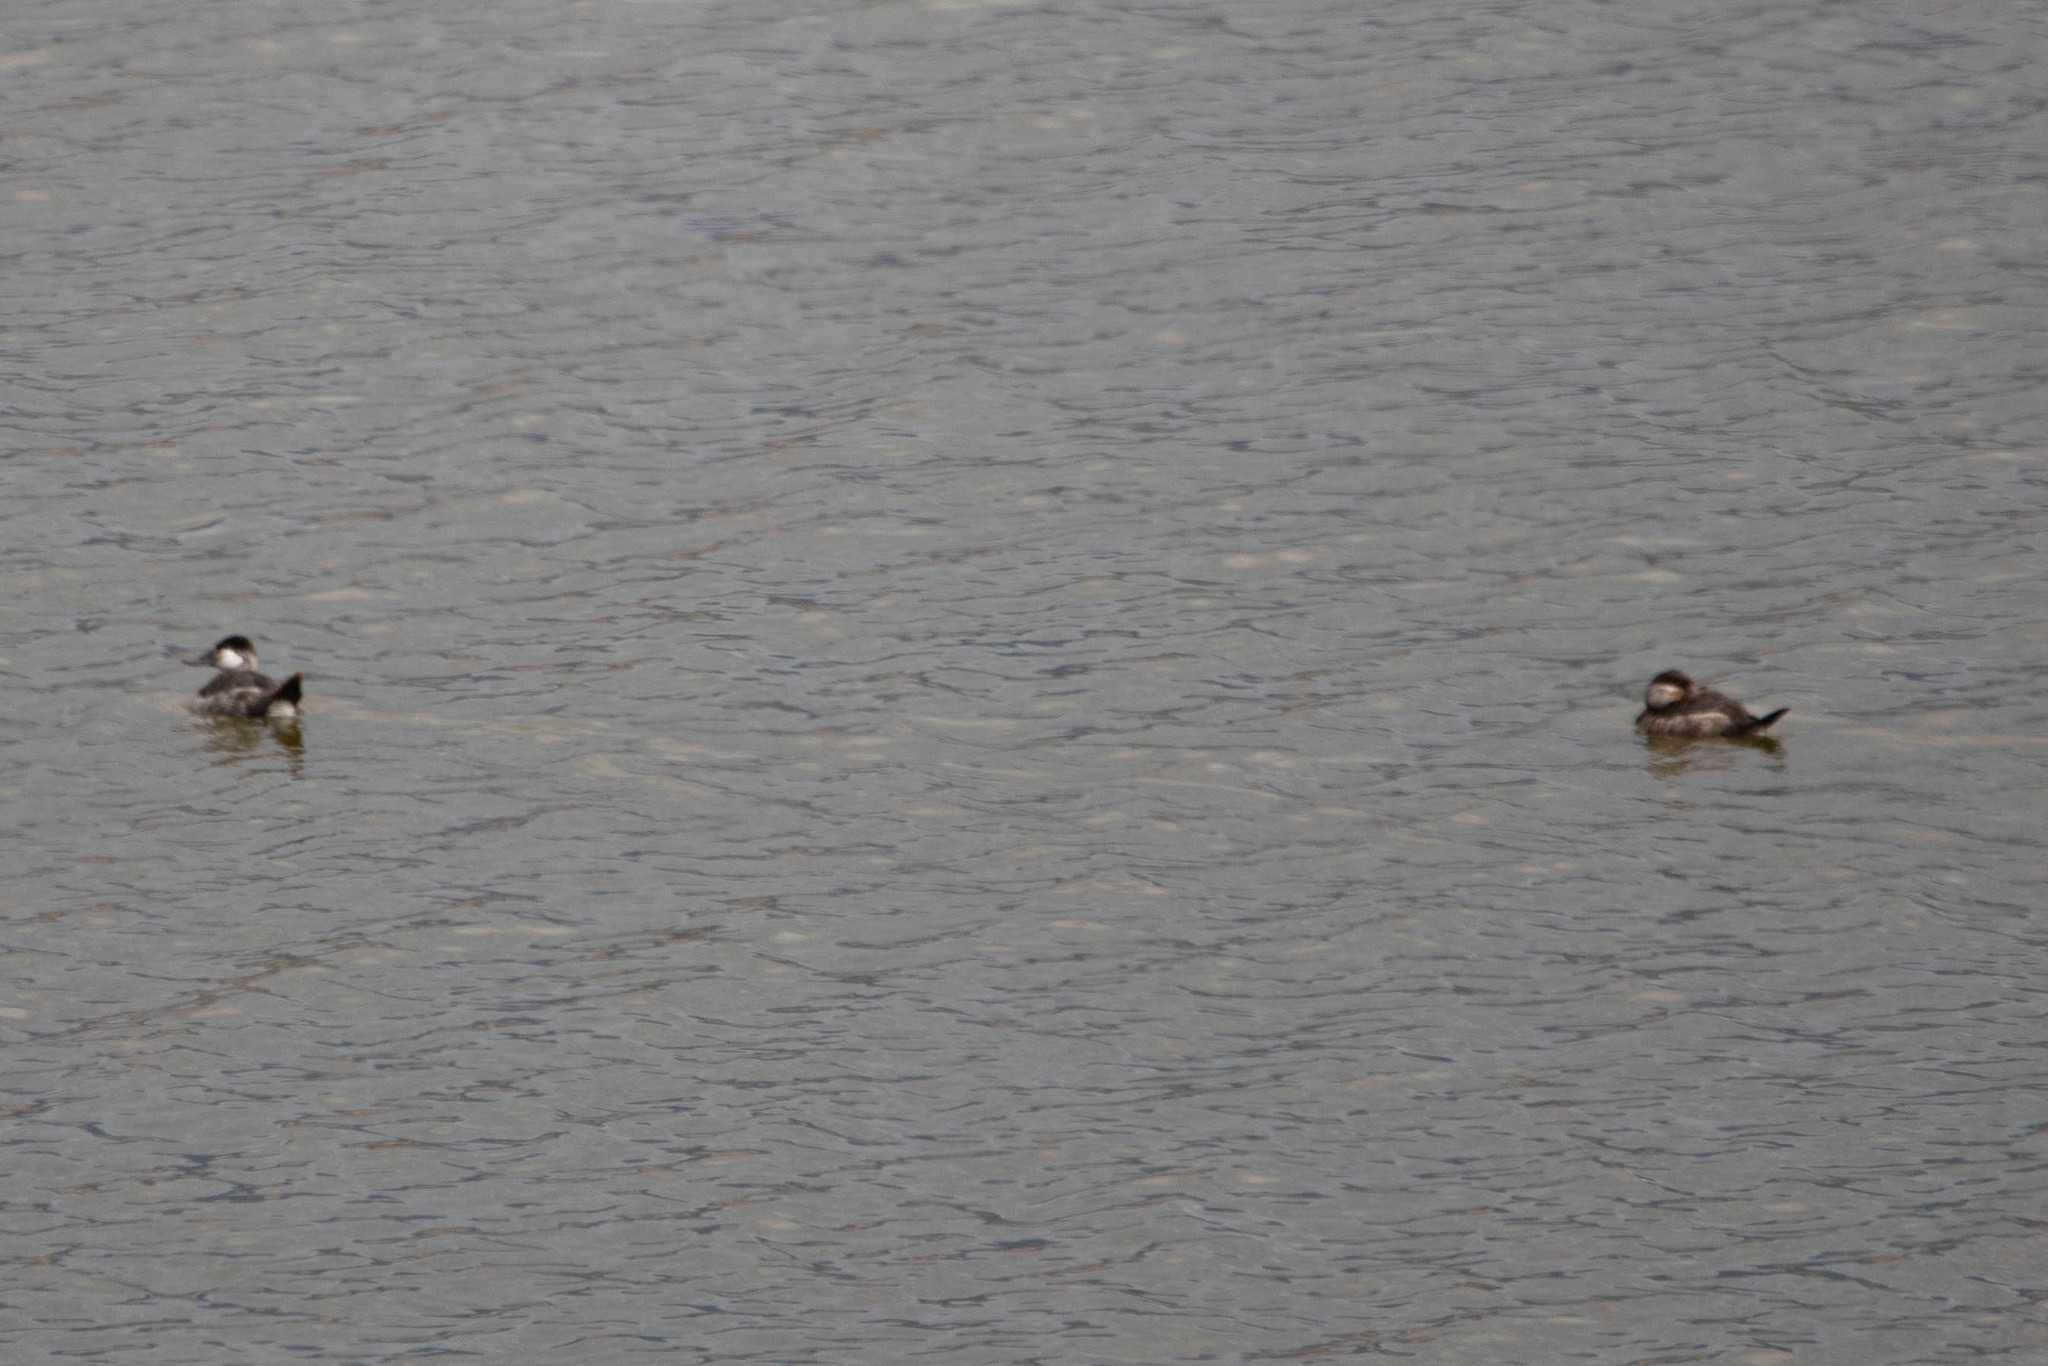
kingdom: Animalia
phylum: Chordata
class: Aves
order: Anseriformes
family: Anatidae
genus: Oxyura
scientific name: Oxyura jamaicensis
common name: Ruddy duck
